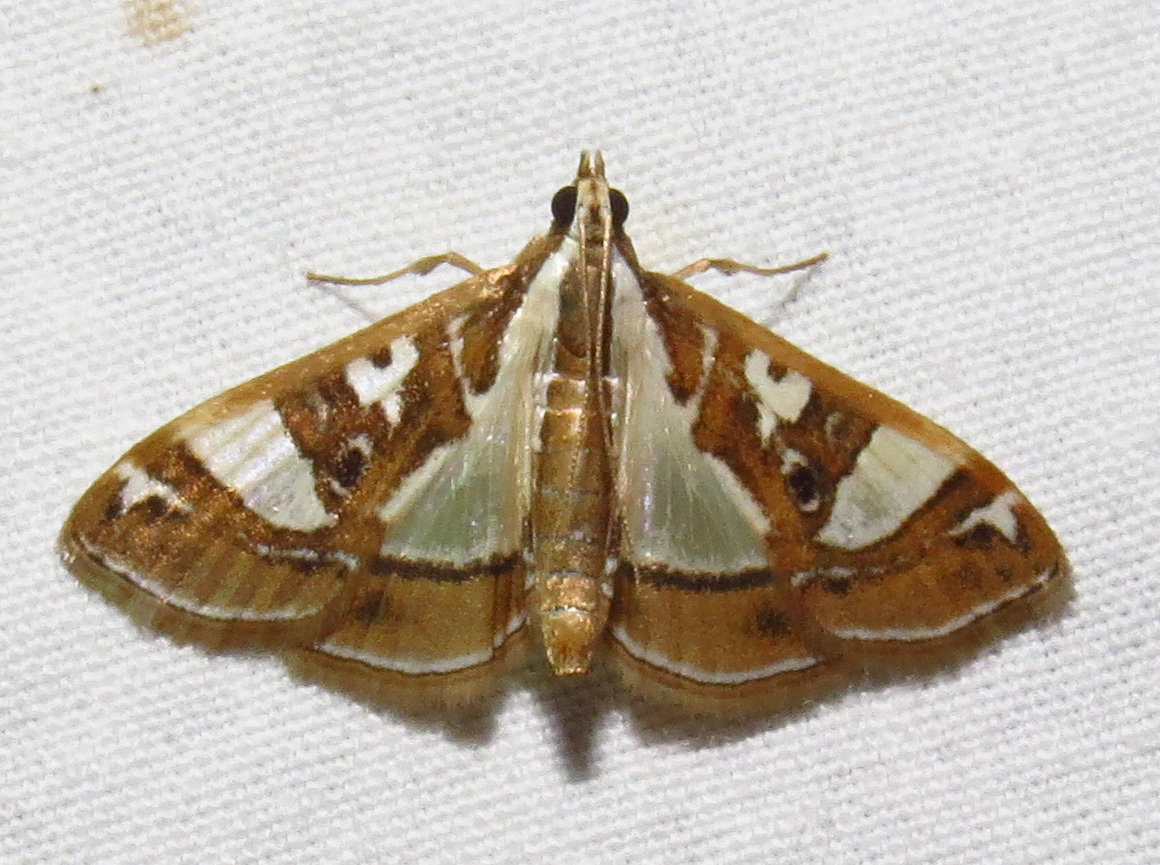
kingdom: Animalia
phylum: Arthropoda
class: Insecta
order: Lepidoptera
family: Crambidae
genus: Glyphodes
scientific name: Glyphodes pyloalis
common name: Lesser mulberry snout moth
